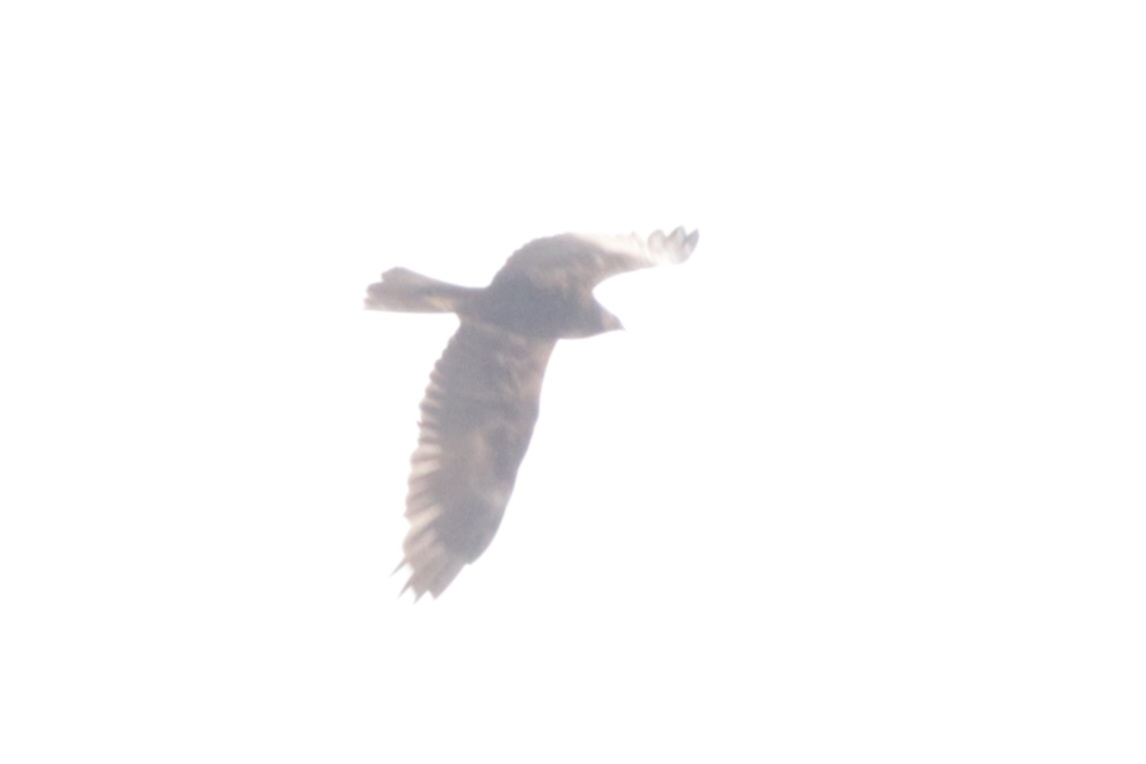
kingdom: Animalia
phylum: Chordata
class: Aves
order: Accipitriformes
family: Accipitridae
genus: Circus
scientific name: Circus aeruginosus
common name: Western marsh harrier
